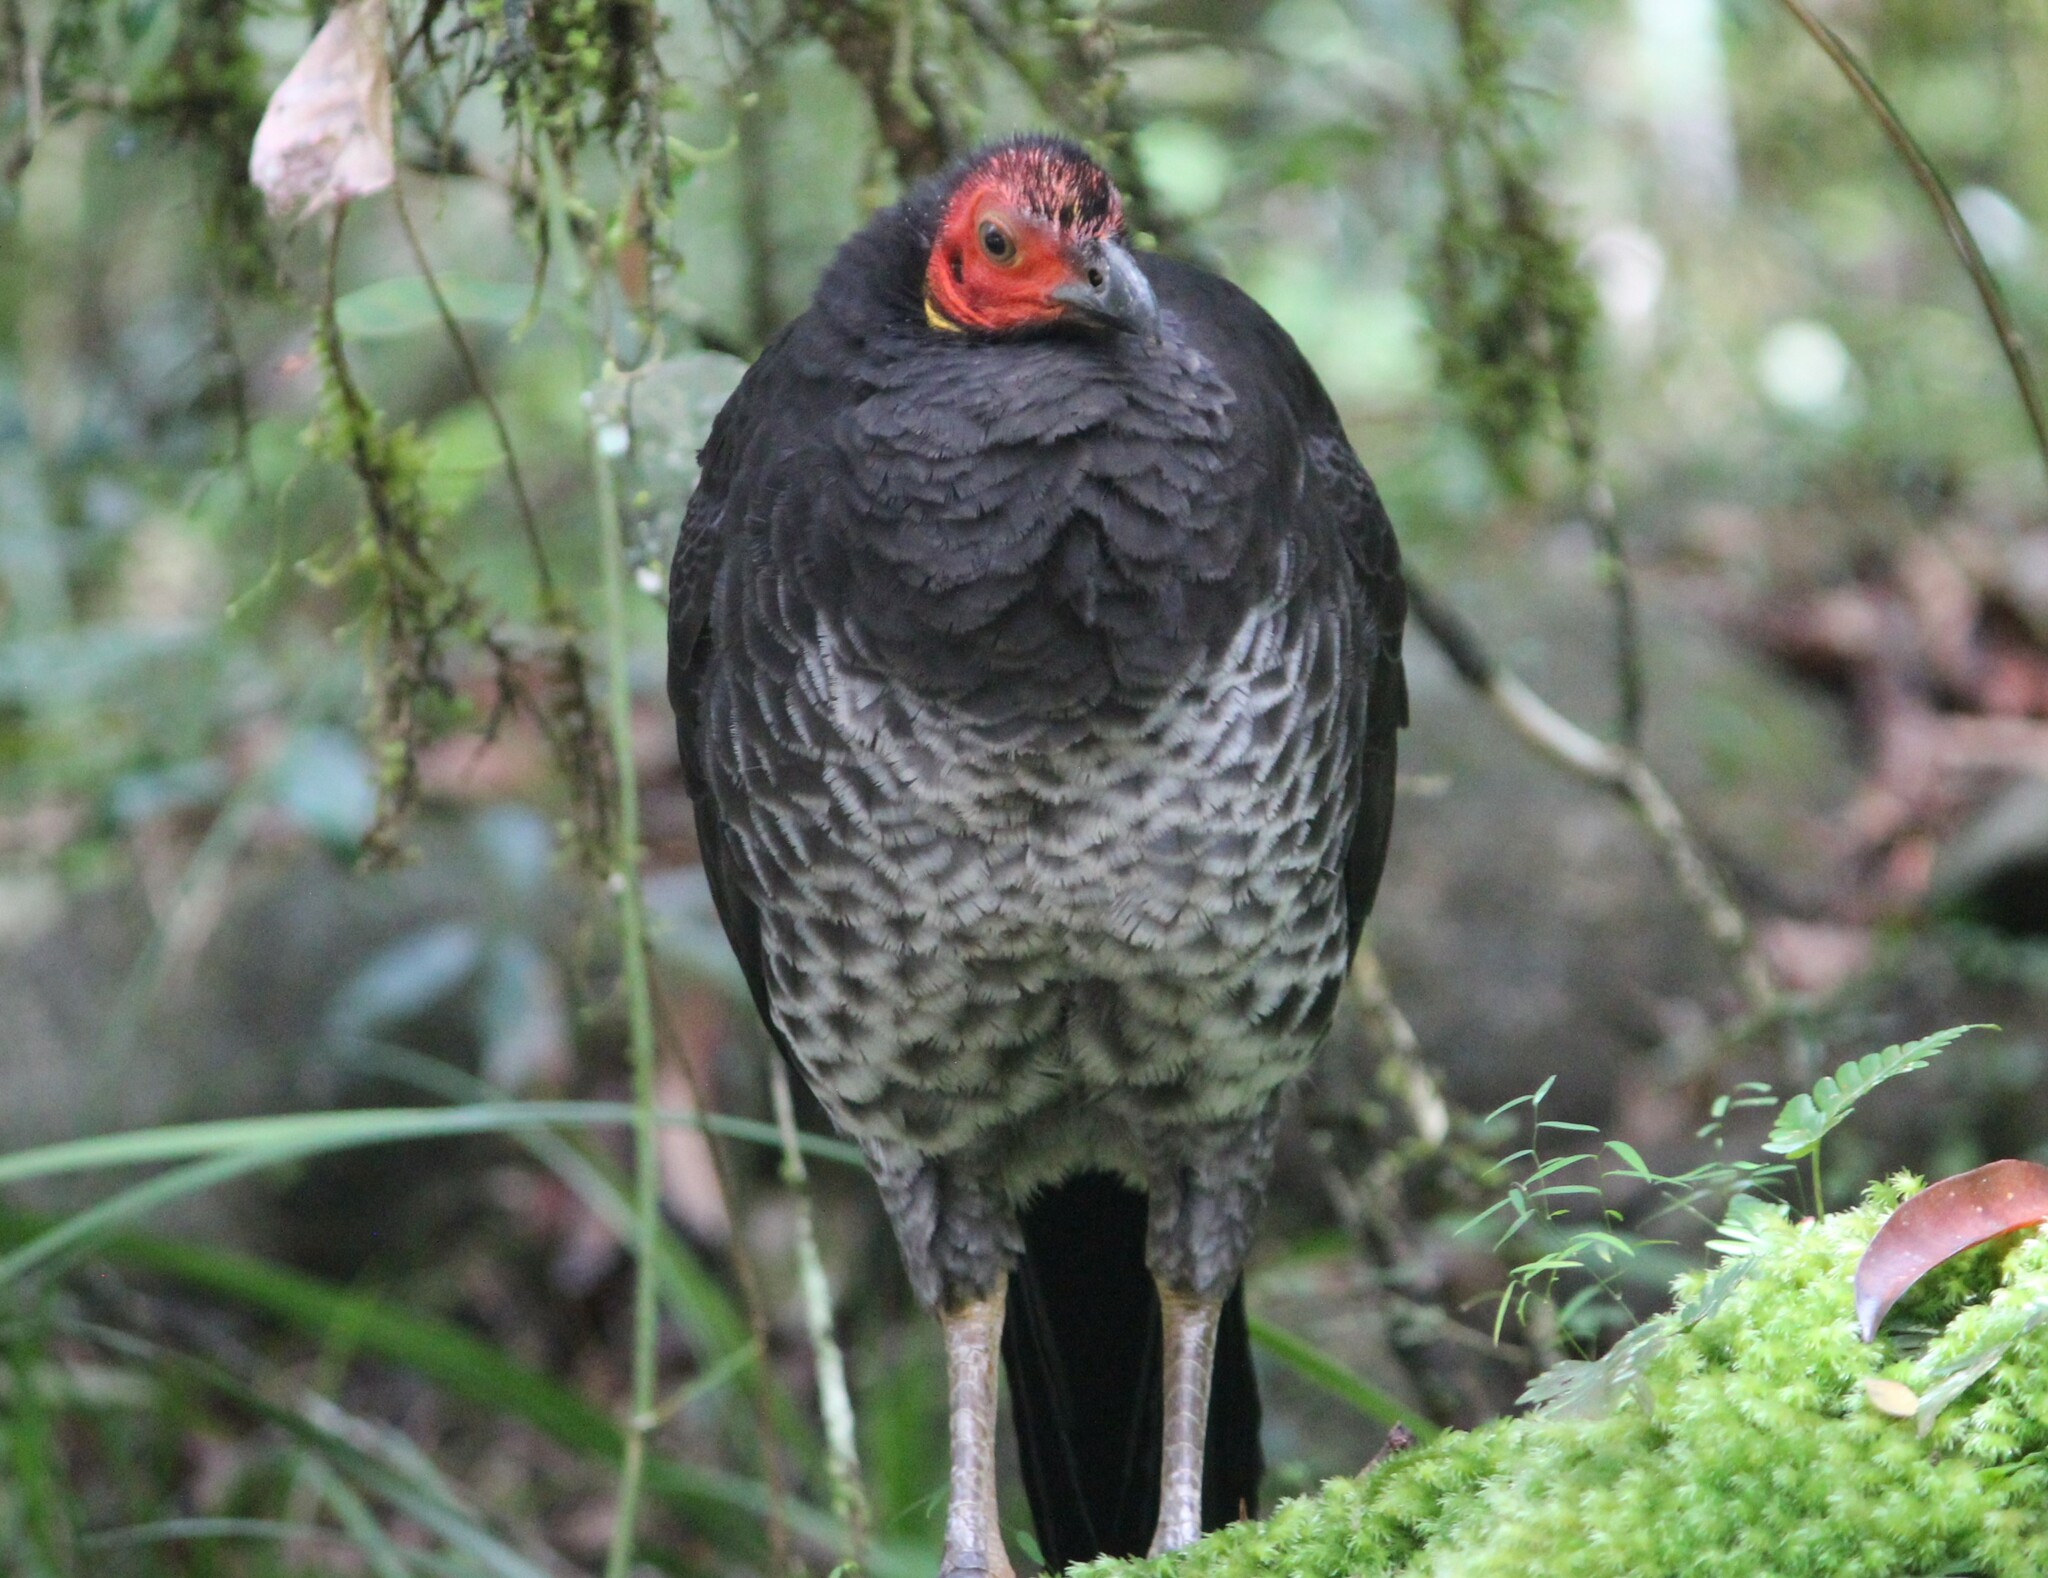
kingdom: Animalia
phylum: Chordata
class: Aves
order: Galliformes
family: Megapodiidae
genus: Alectura
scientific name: Alectura lathami
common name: Australian brushturkey
